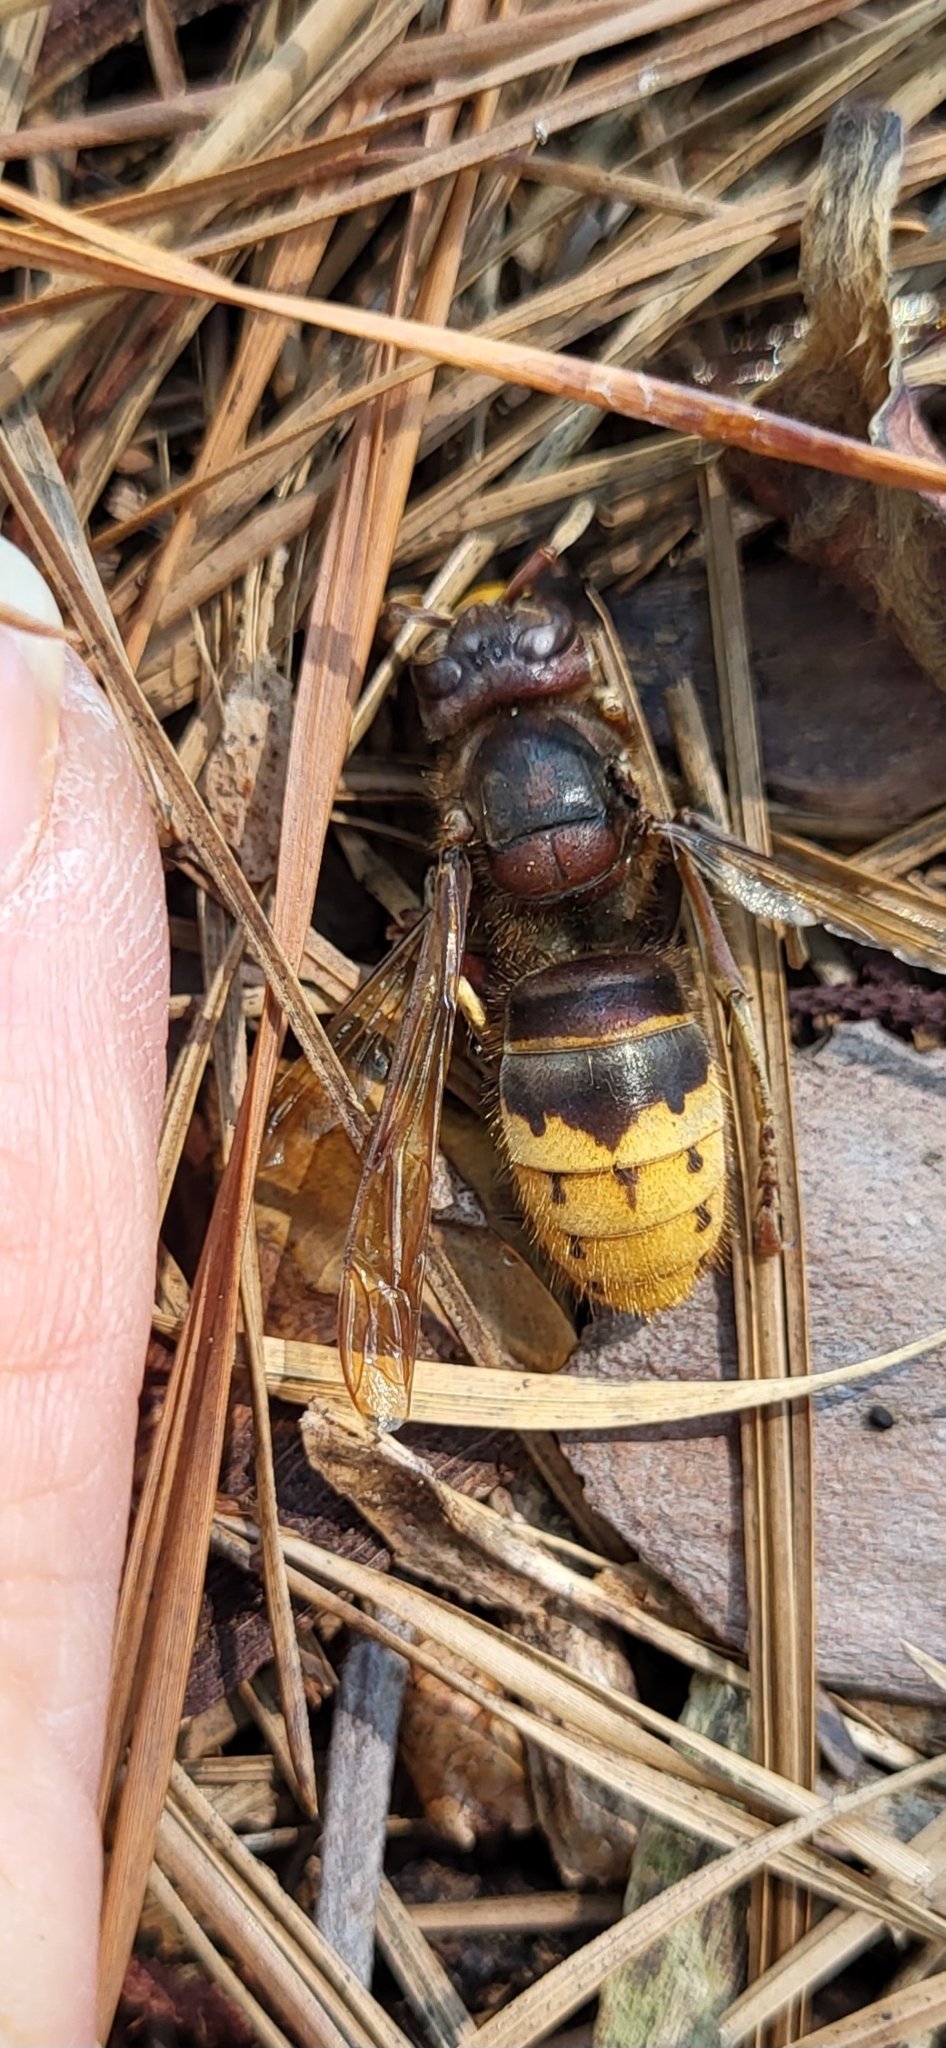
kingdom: Animalia
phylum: Arthropoda
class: Insecta
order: Hymenoptera
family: Vespidae
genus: Vespa
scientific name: Vespa crabro
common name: Hornet
